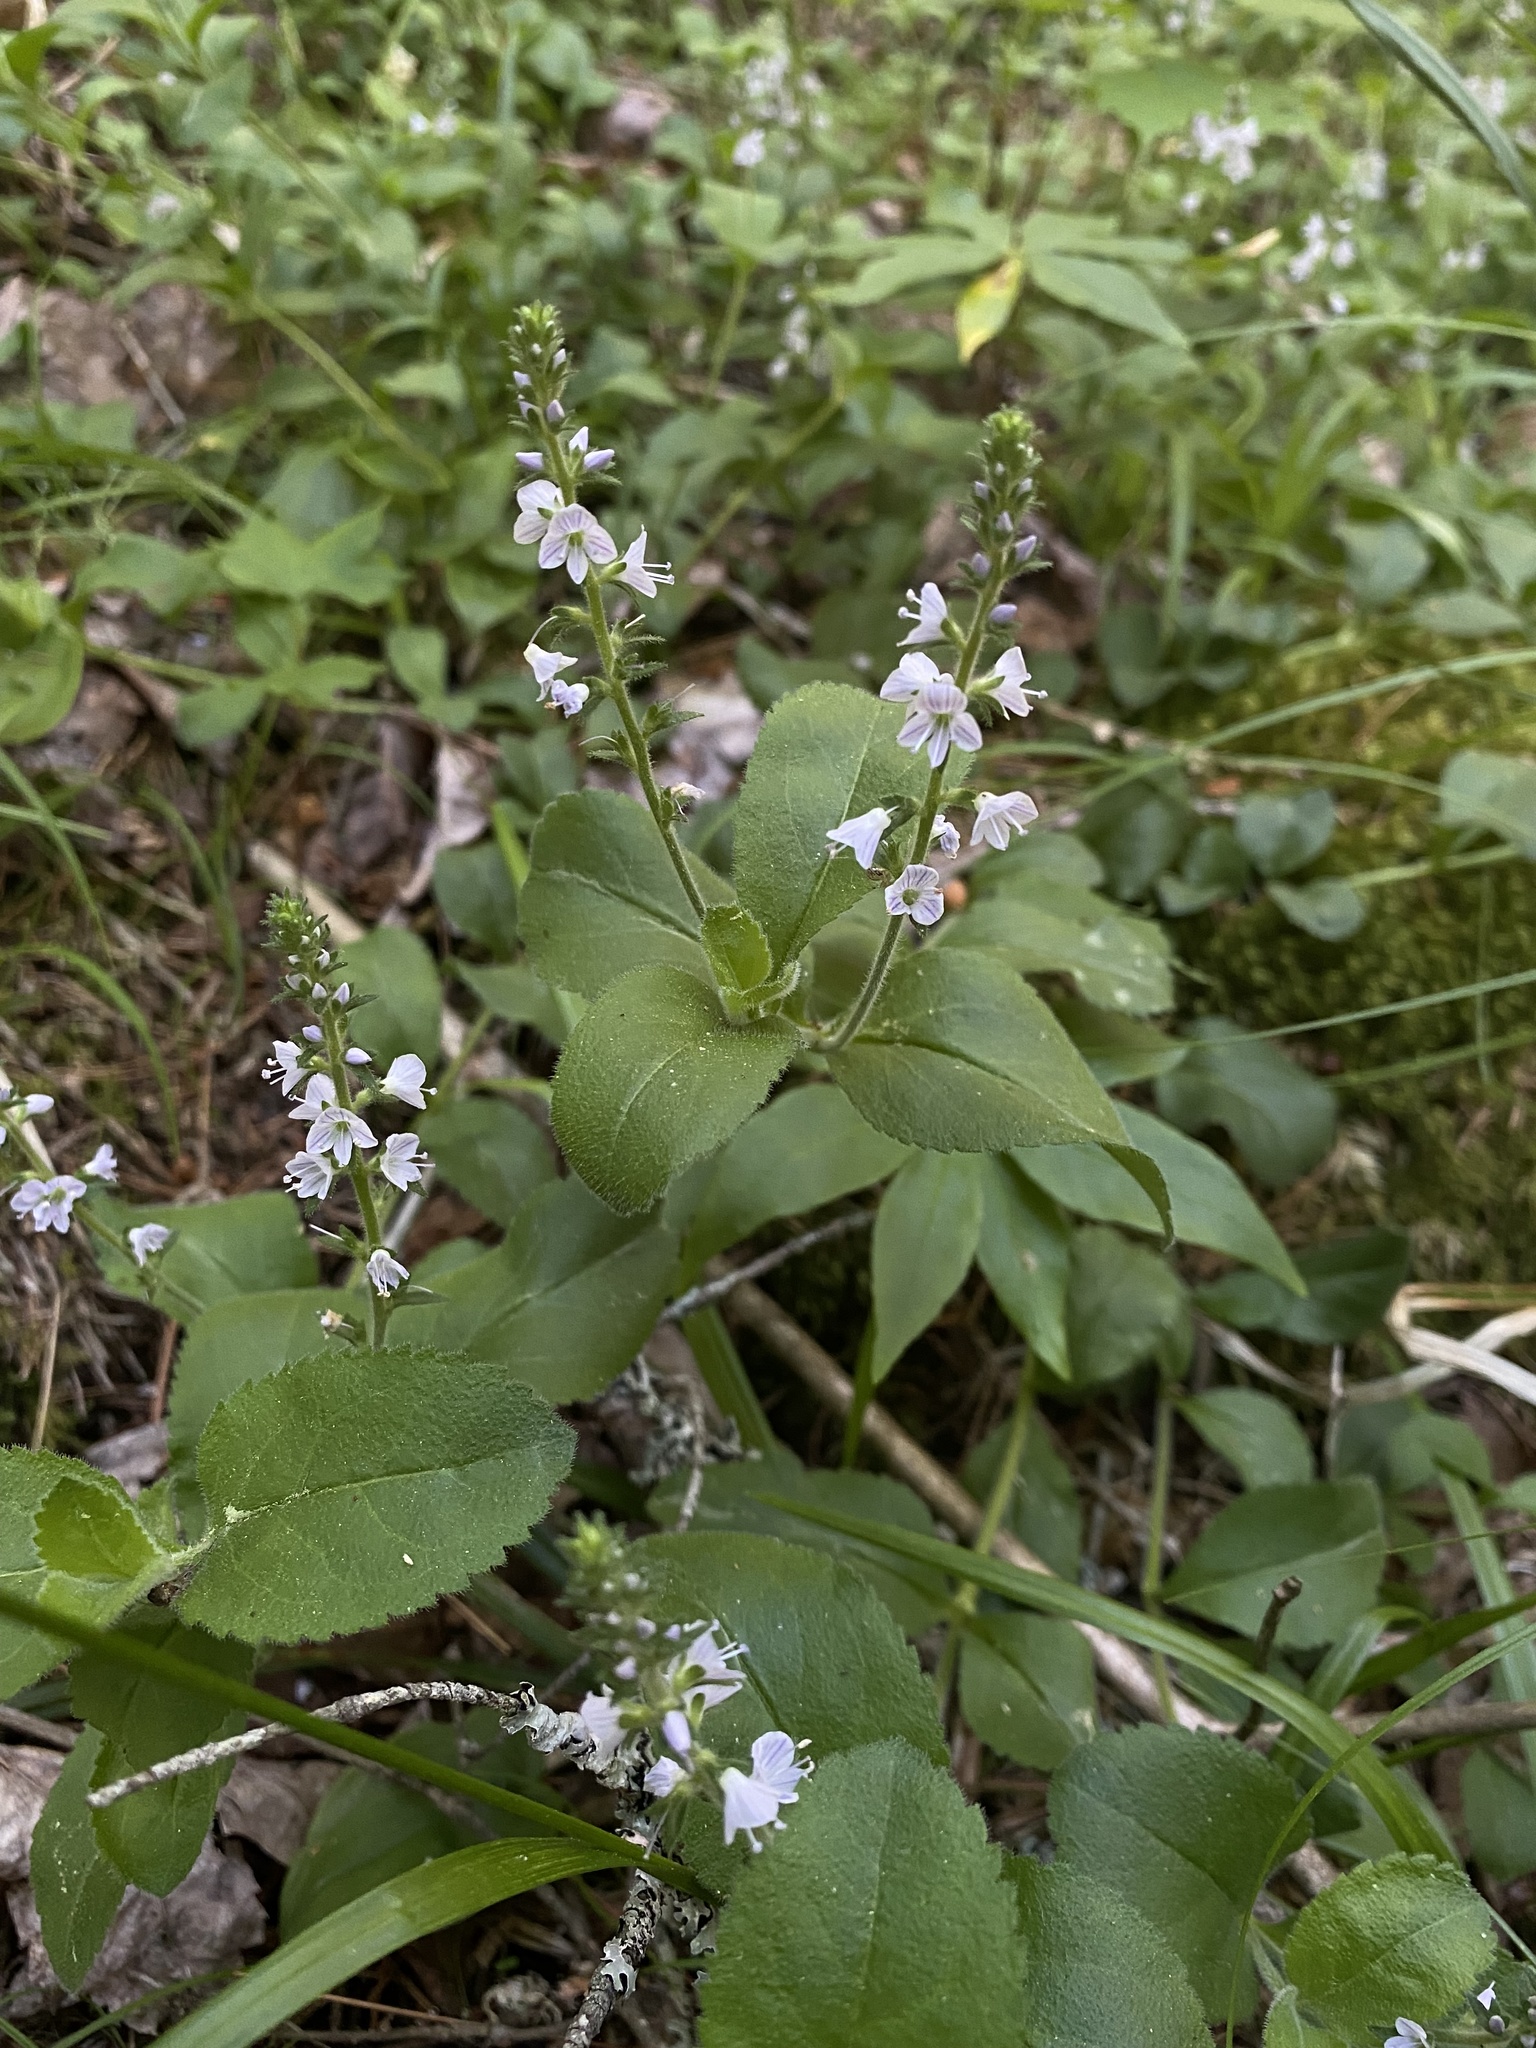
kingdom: Plantae
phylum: Tracheophyta
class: Magnoliopsida
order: Lamiales
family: Plantaginaceae
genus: Veronica
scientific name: Veronica officinalis
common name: Common speedwell
